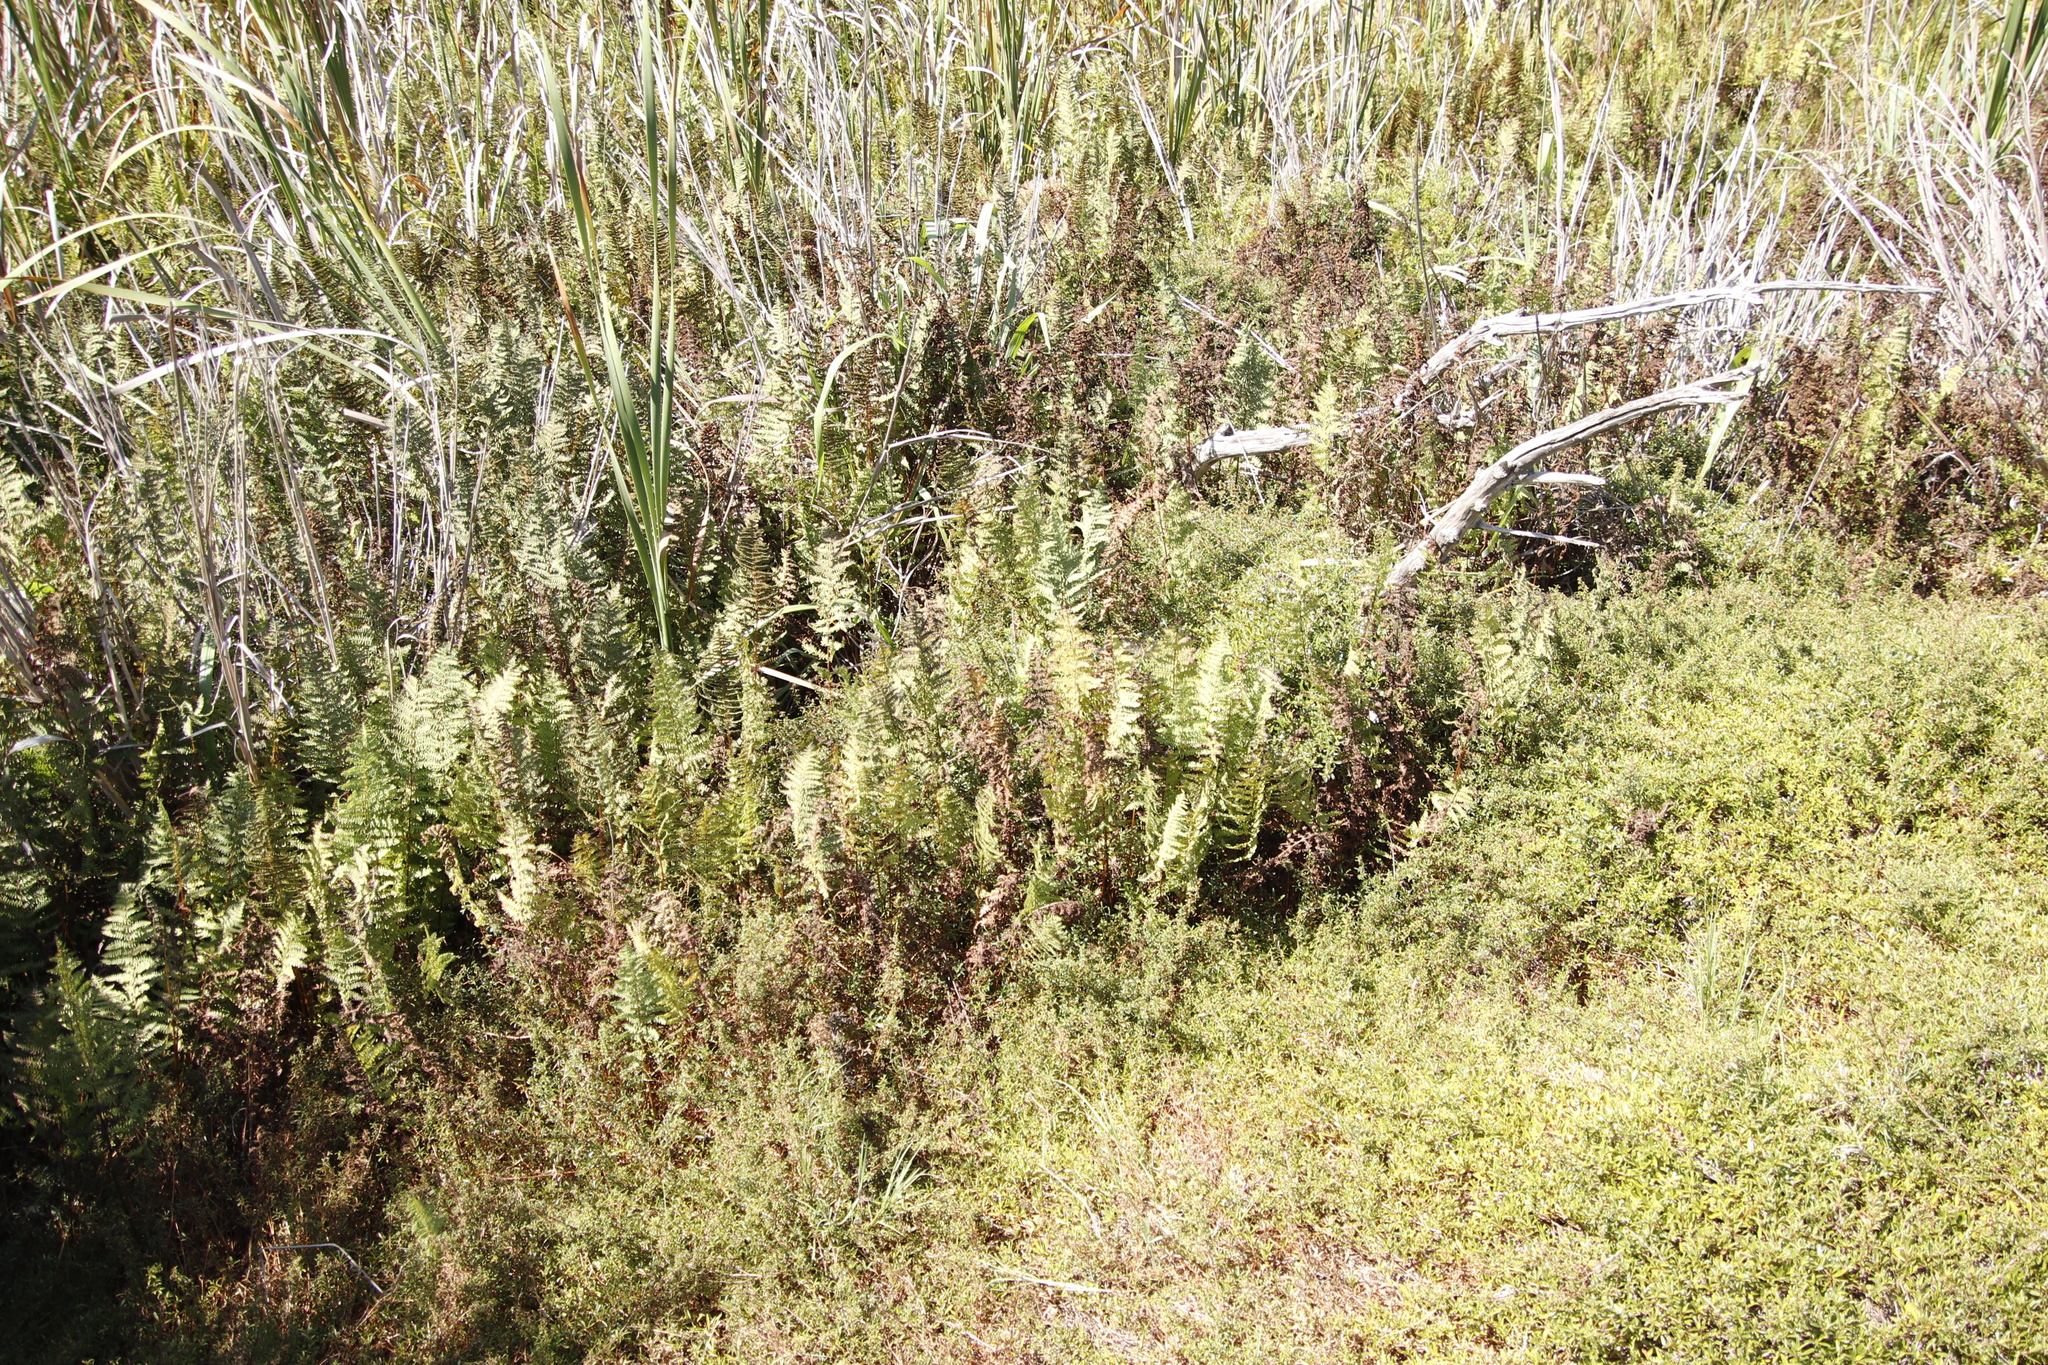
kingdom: Plantae
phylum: Tracheophyta
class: Polypodiopsida
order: Polypodiales
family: Thelypteridaceae
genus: Thelypteris
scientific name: Thelypteris confluens
